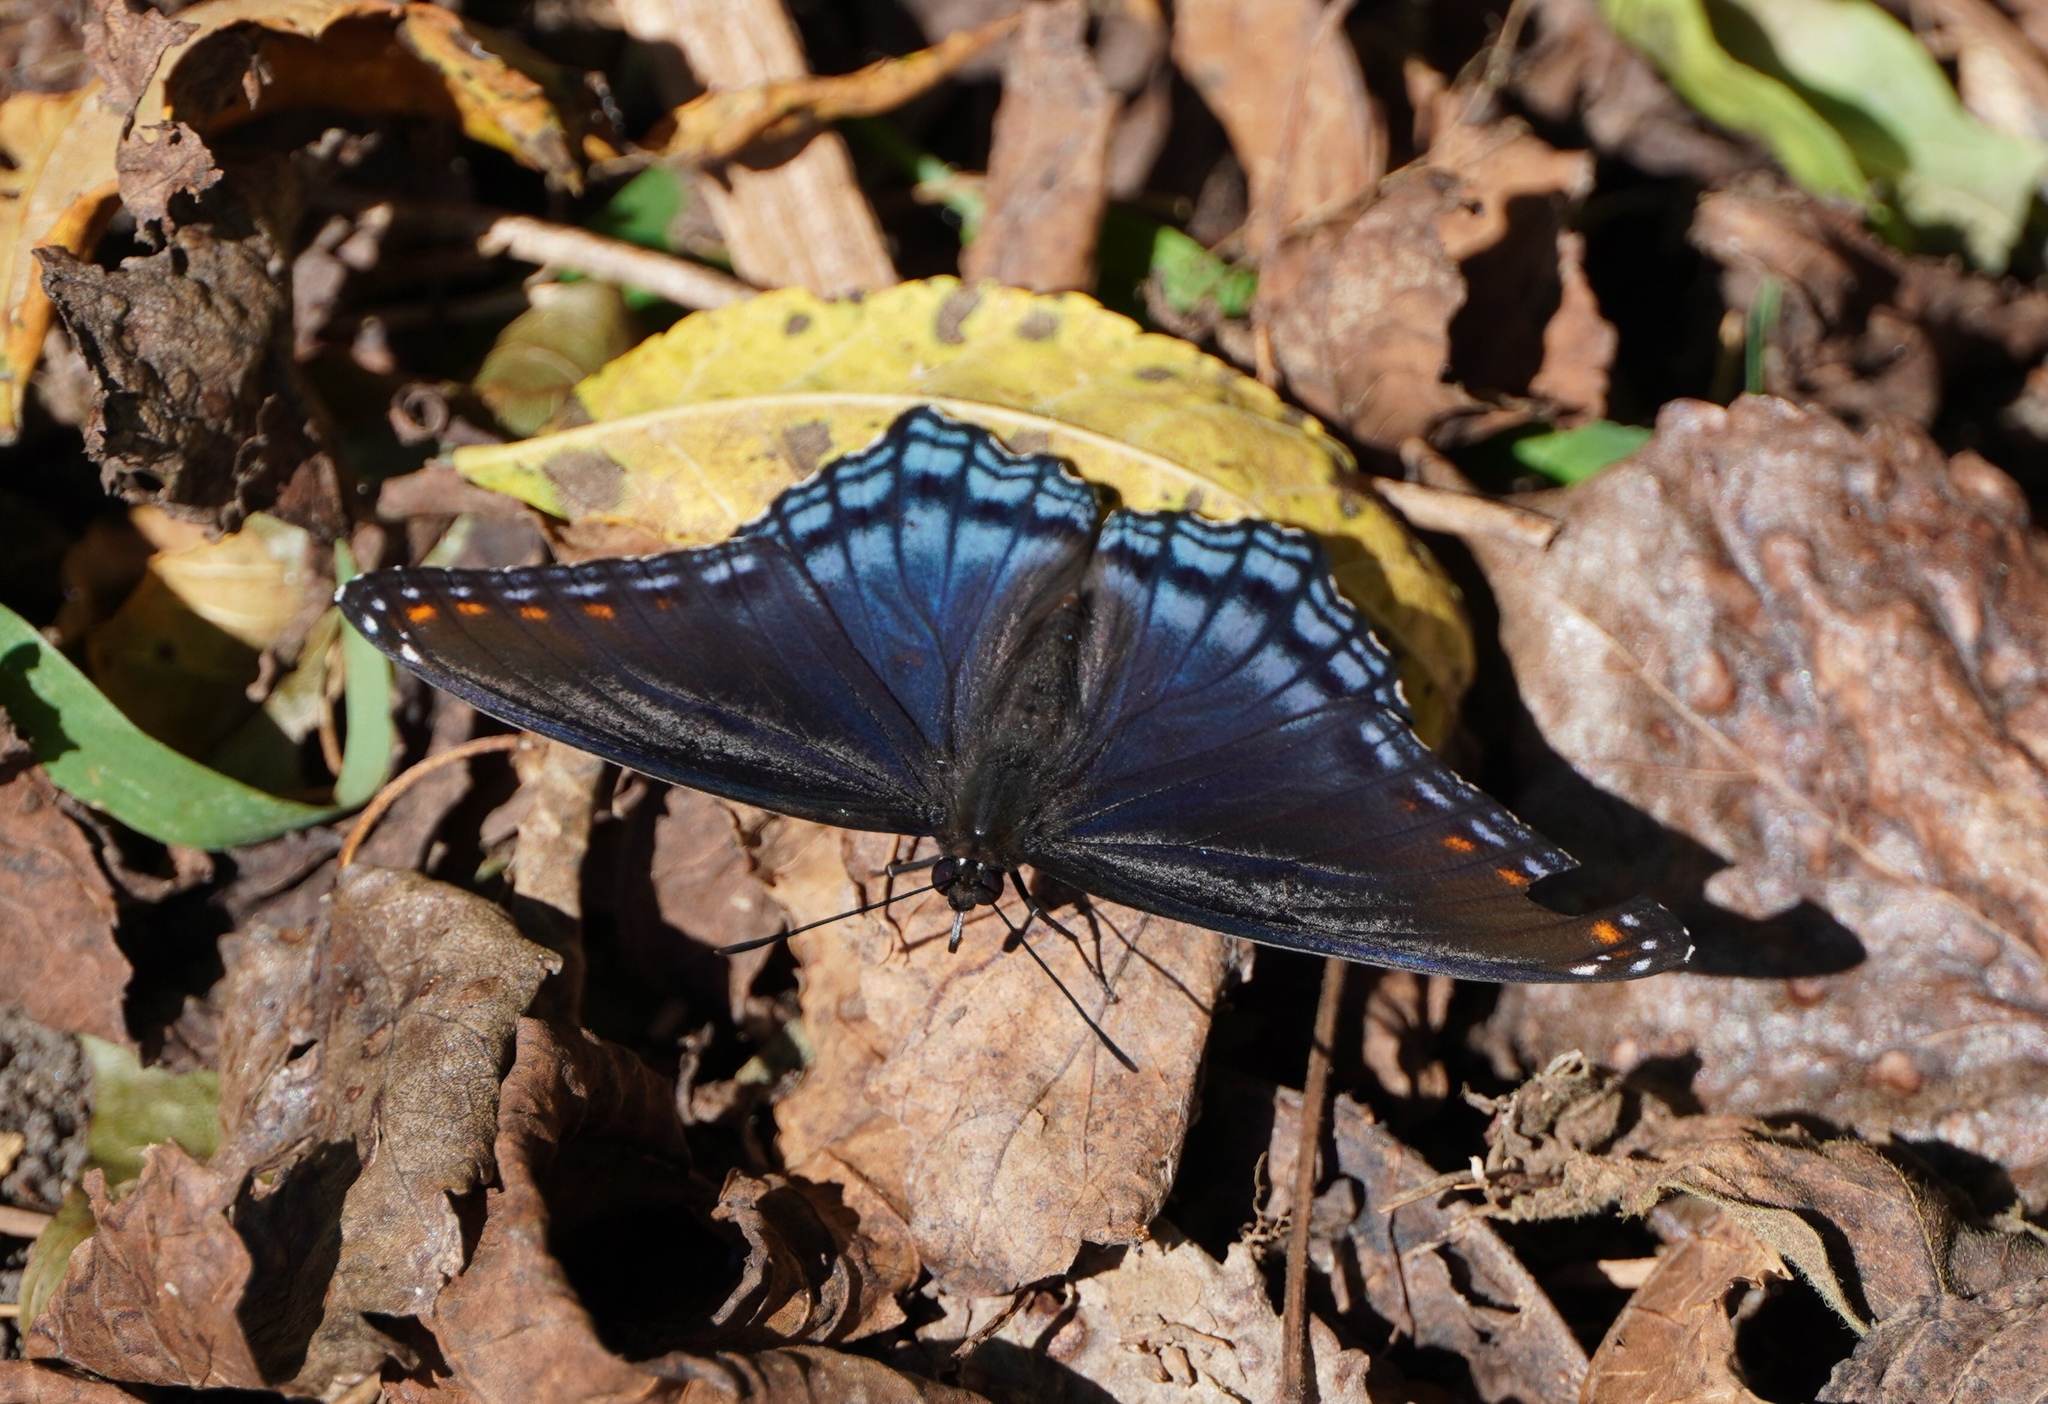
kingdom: Animalia
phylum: Arthropoda
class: Insecta
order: Lepidoptera
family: Nymphalidae
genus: Limenitis
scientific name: Limenitis arthemis
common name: Red-spotted admiral
